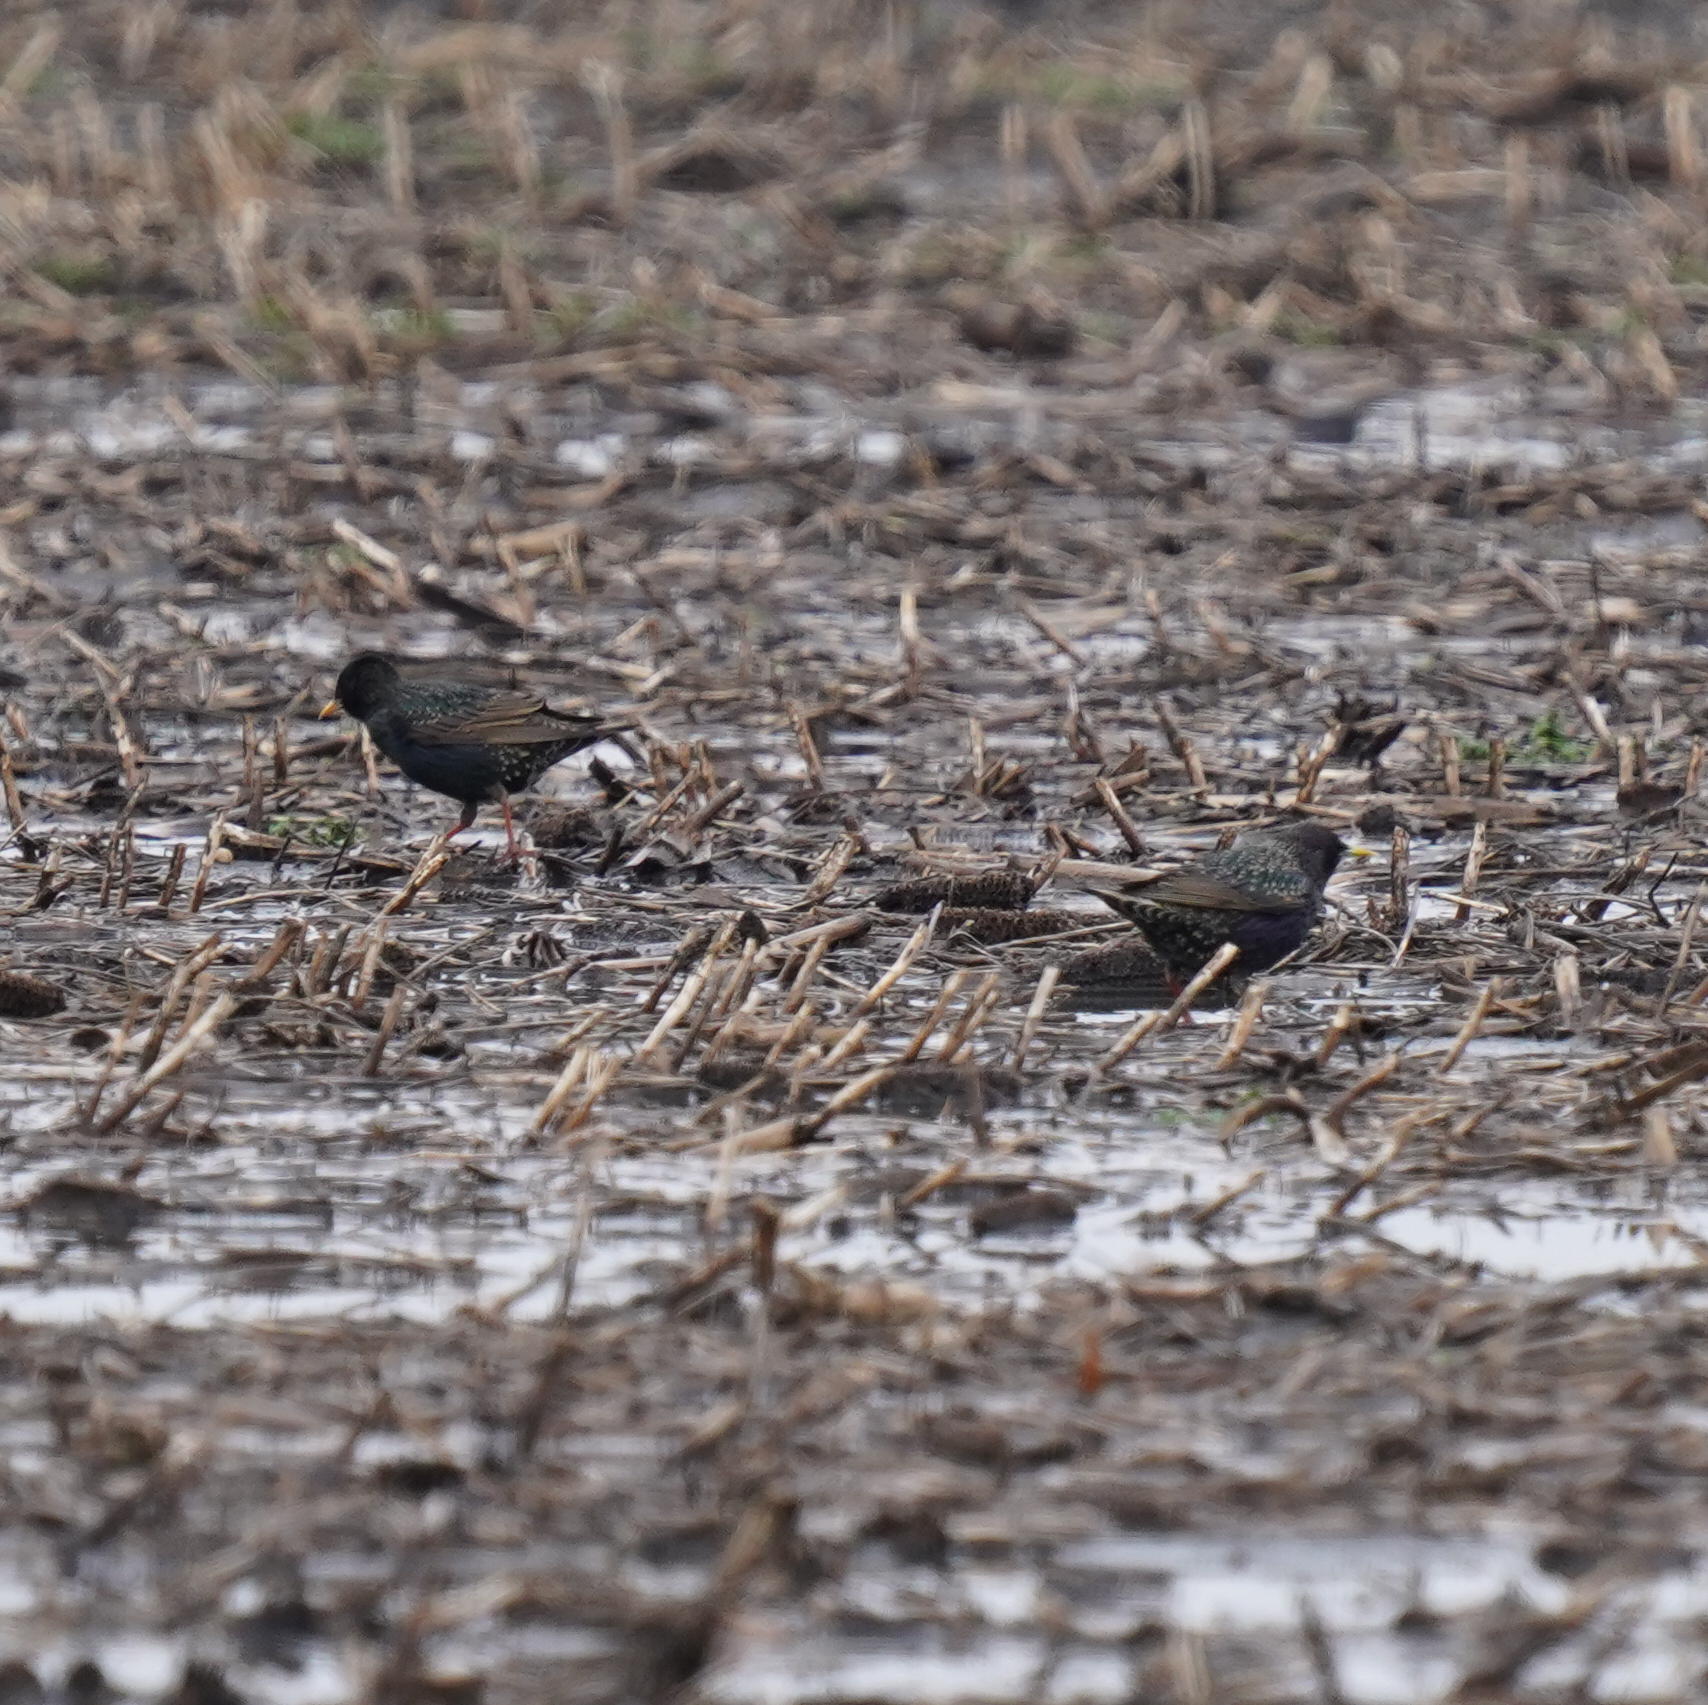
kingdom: Animalia
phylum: Chordata
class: Aves
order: Passeriformes
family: Sturnidae
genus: Sturnus
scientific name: Sturnus vulgaris
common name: Common starling
